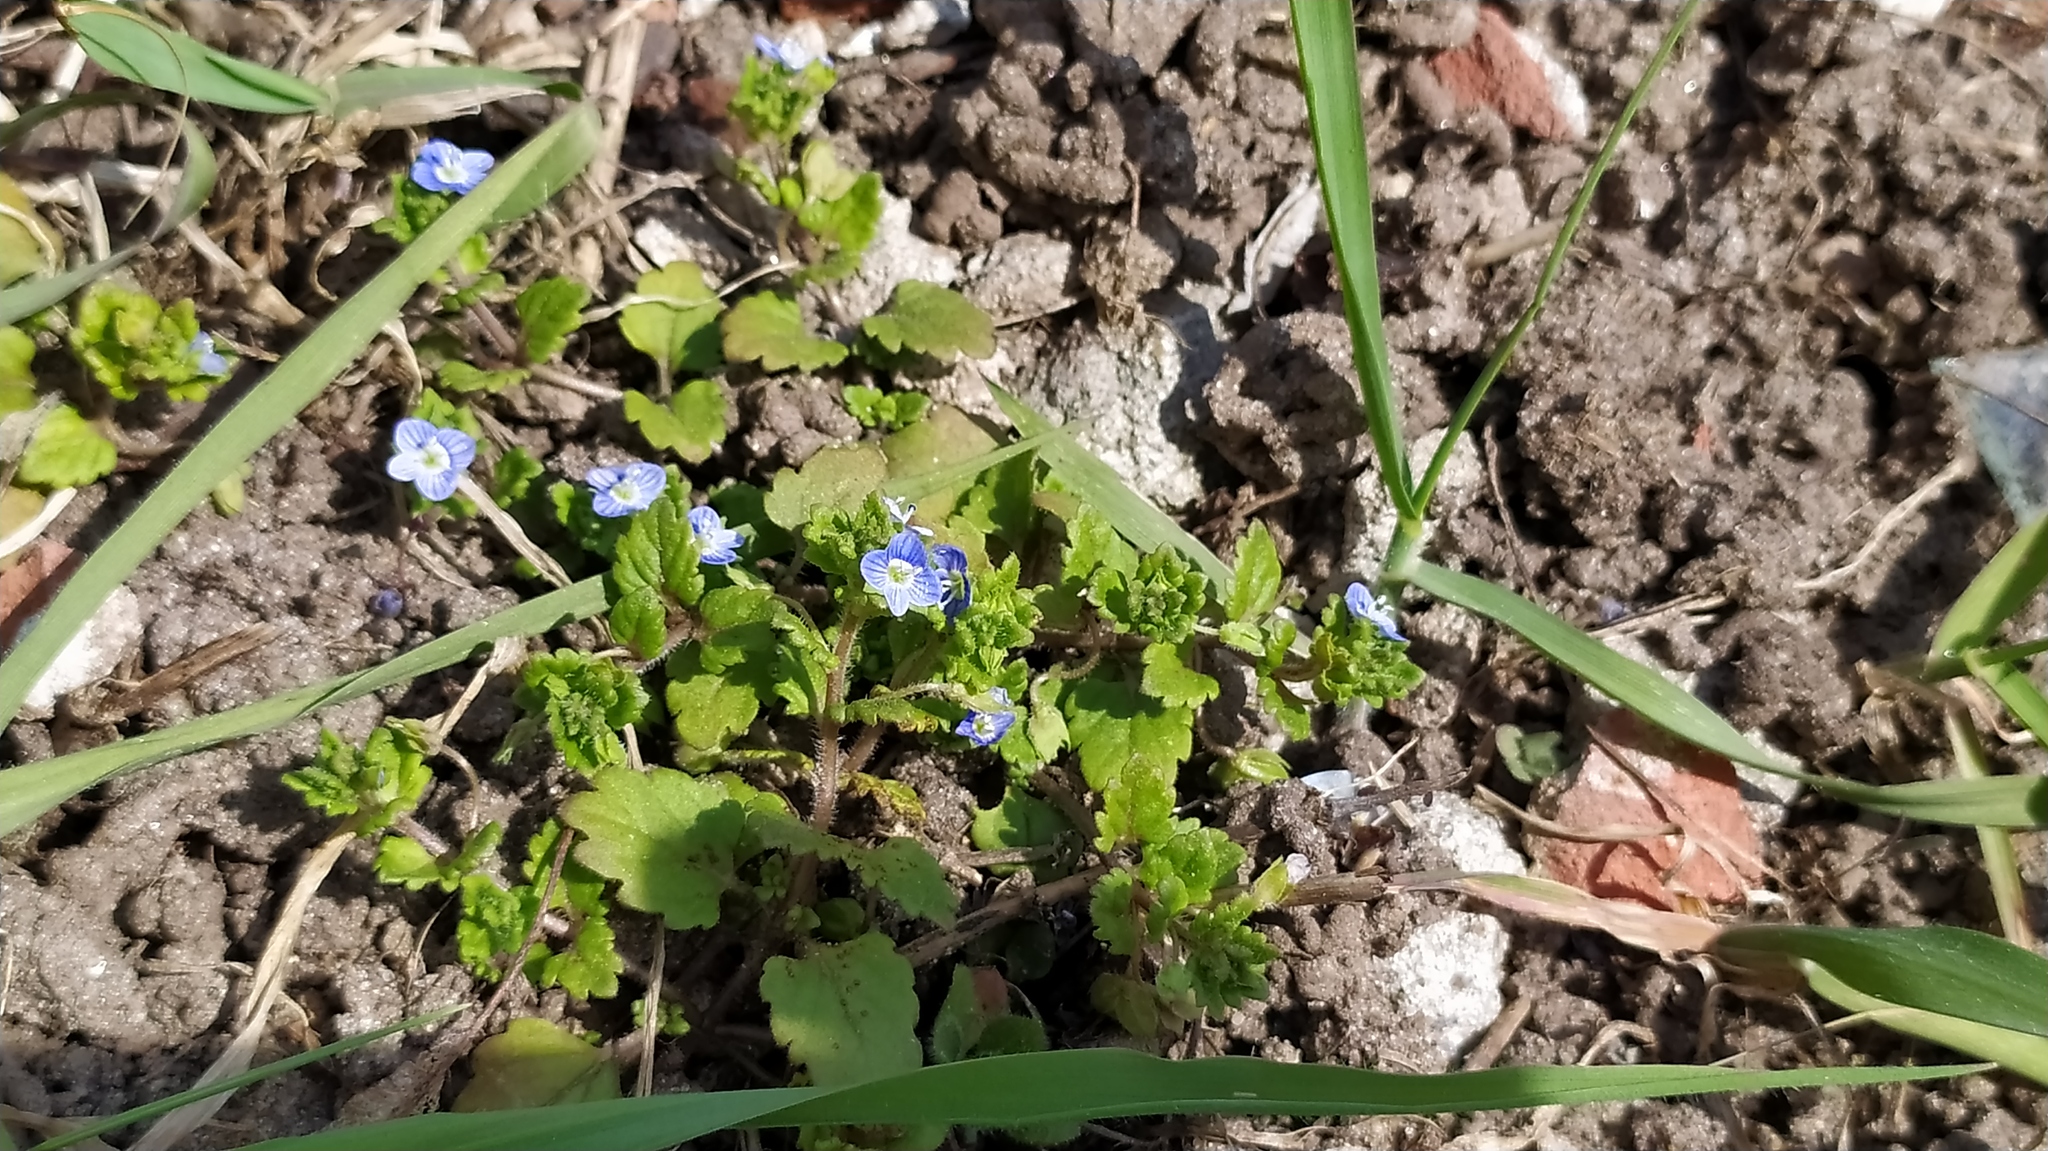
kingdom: Plantae
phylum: Tracheophyta
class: Magnoliopsida
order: Lamiales
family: Plantaginaceae
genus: Veronica
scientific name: Veronica persica
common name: Common field-speedwell
